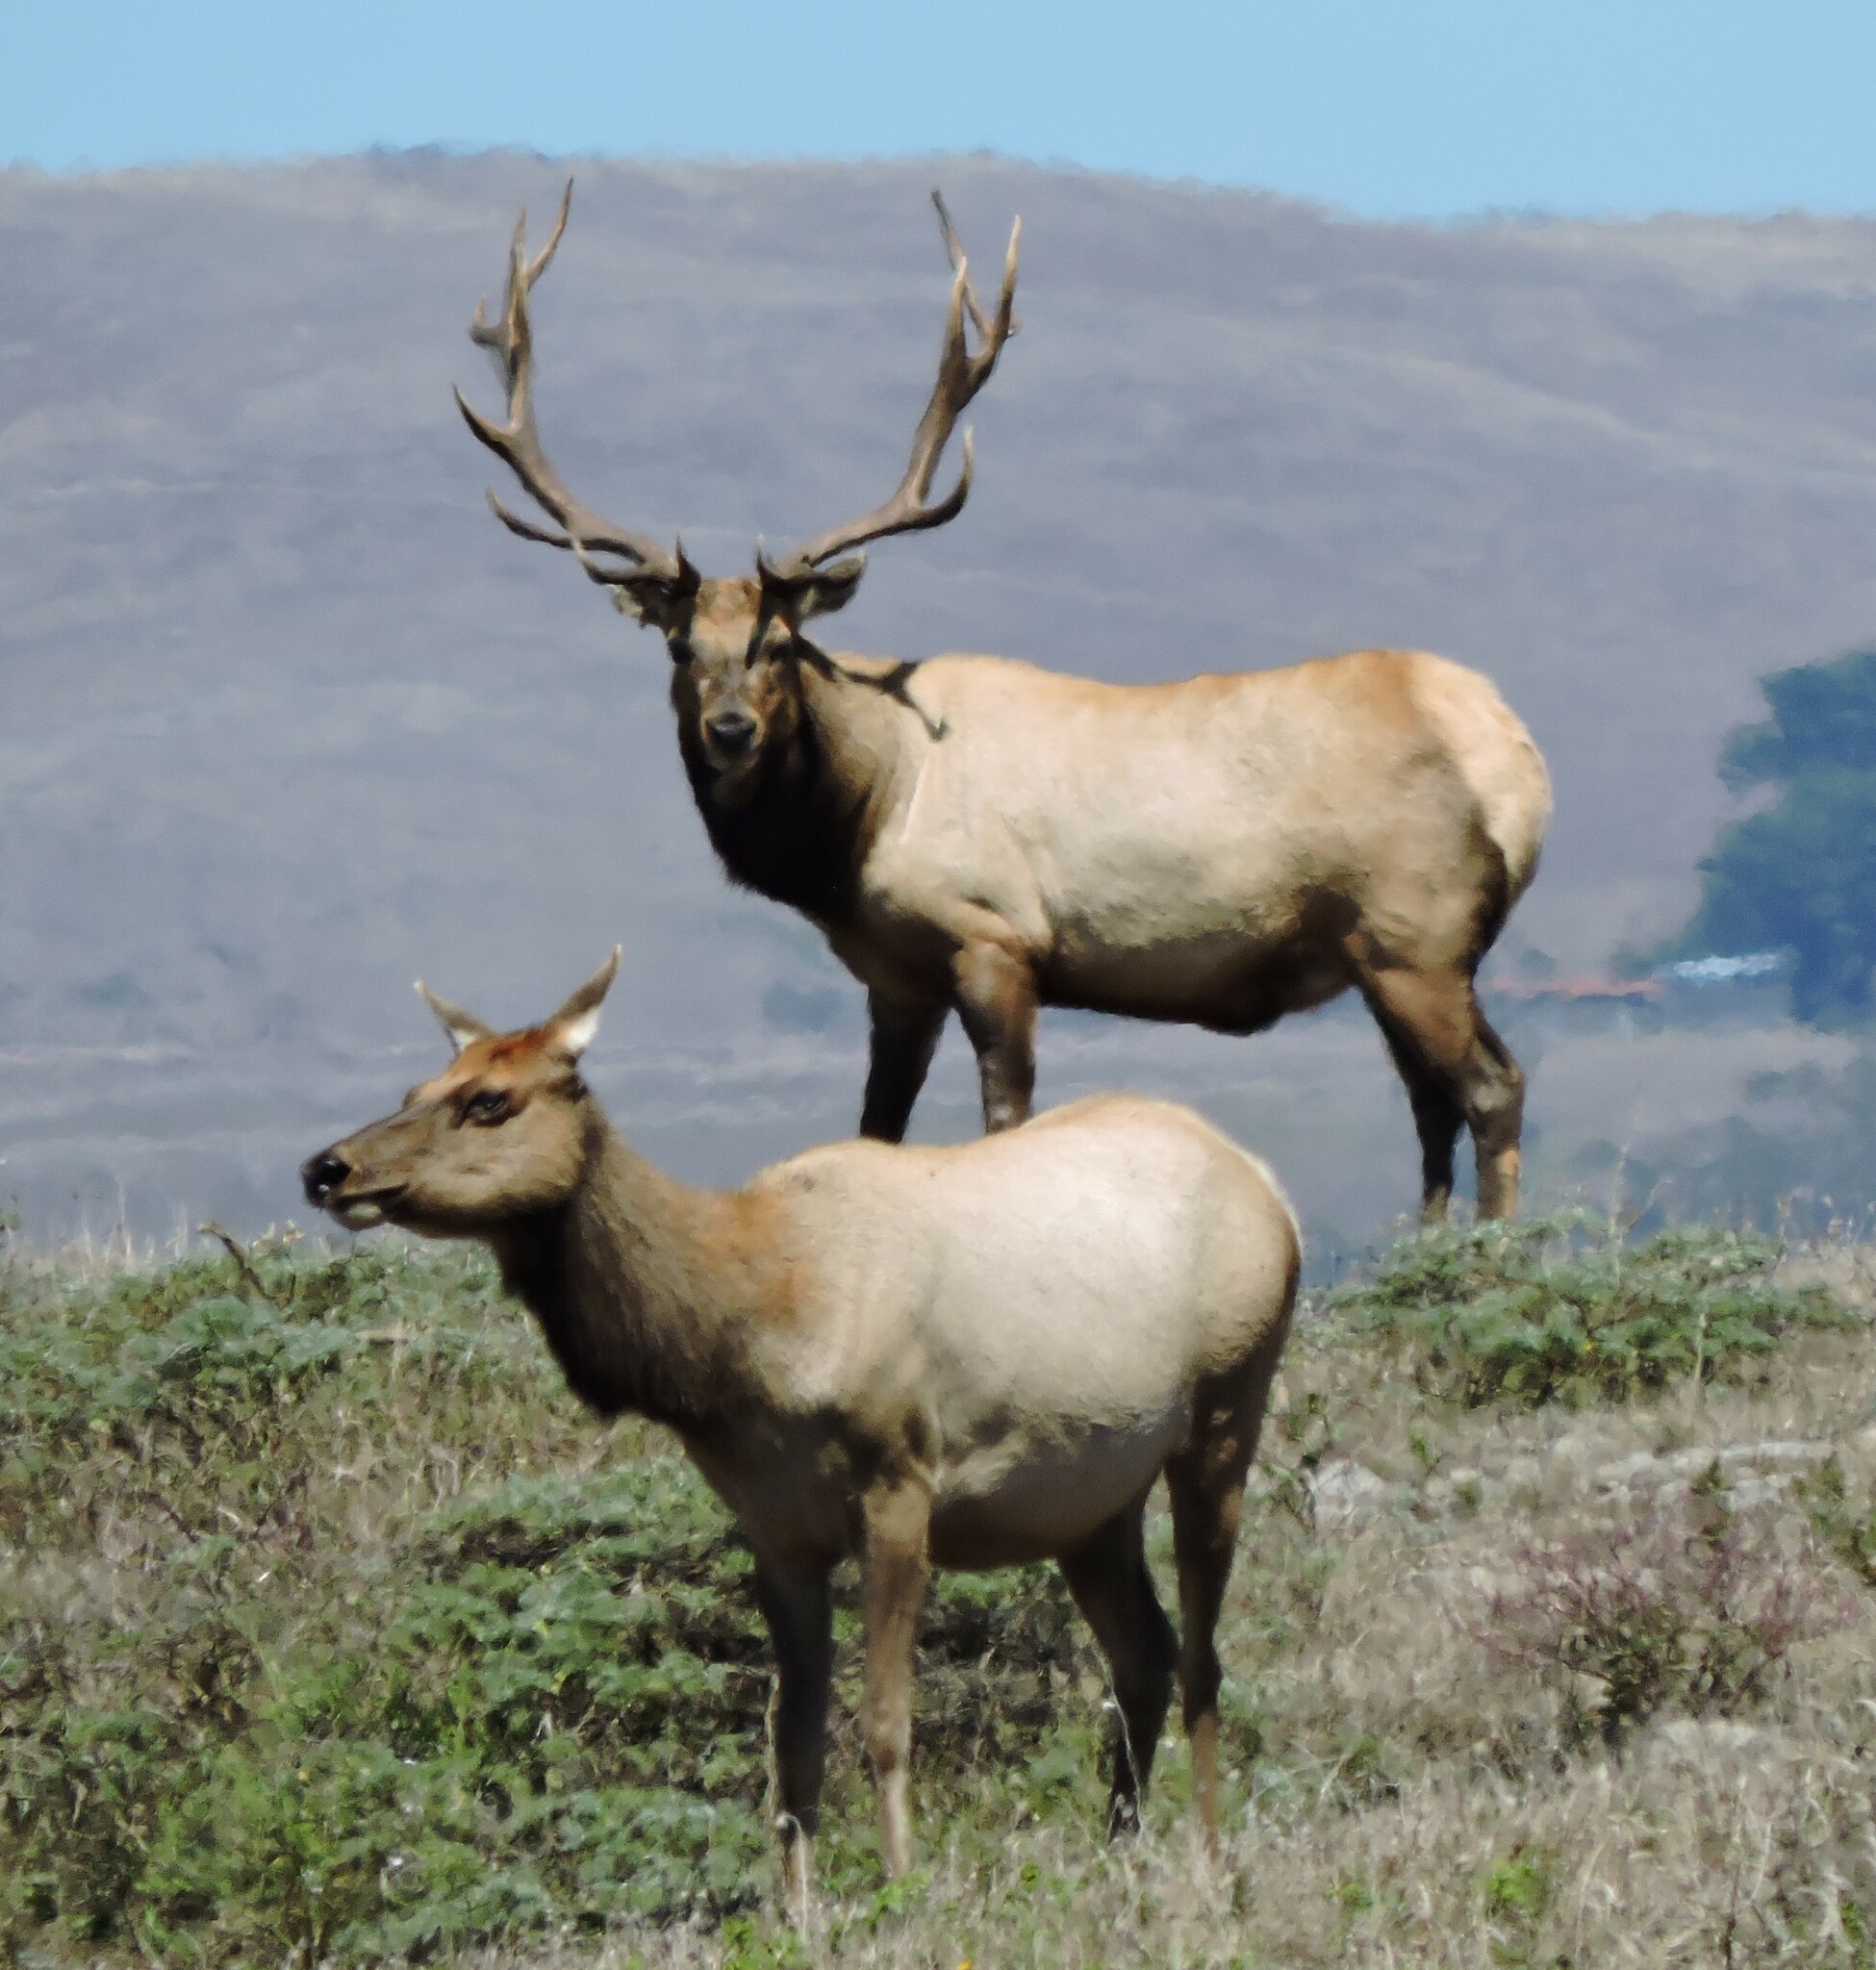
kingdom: Animalia
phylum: Chordata
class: Mammalia
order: Artiodactyla
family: Cervidae
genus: Cervus
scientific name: Cervus elaphus
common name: Red deer
